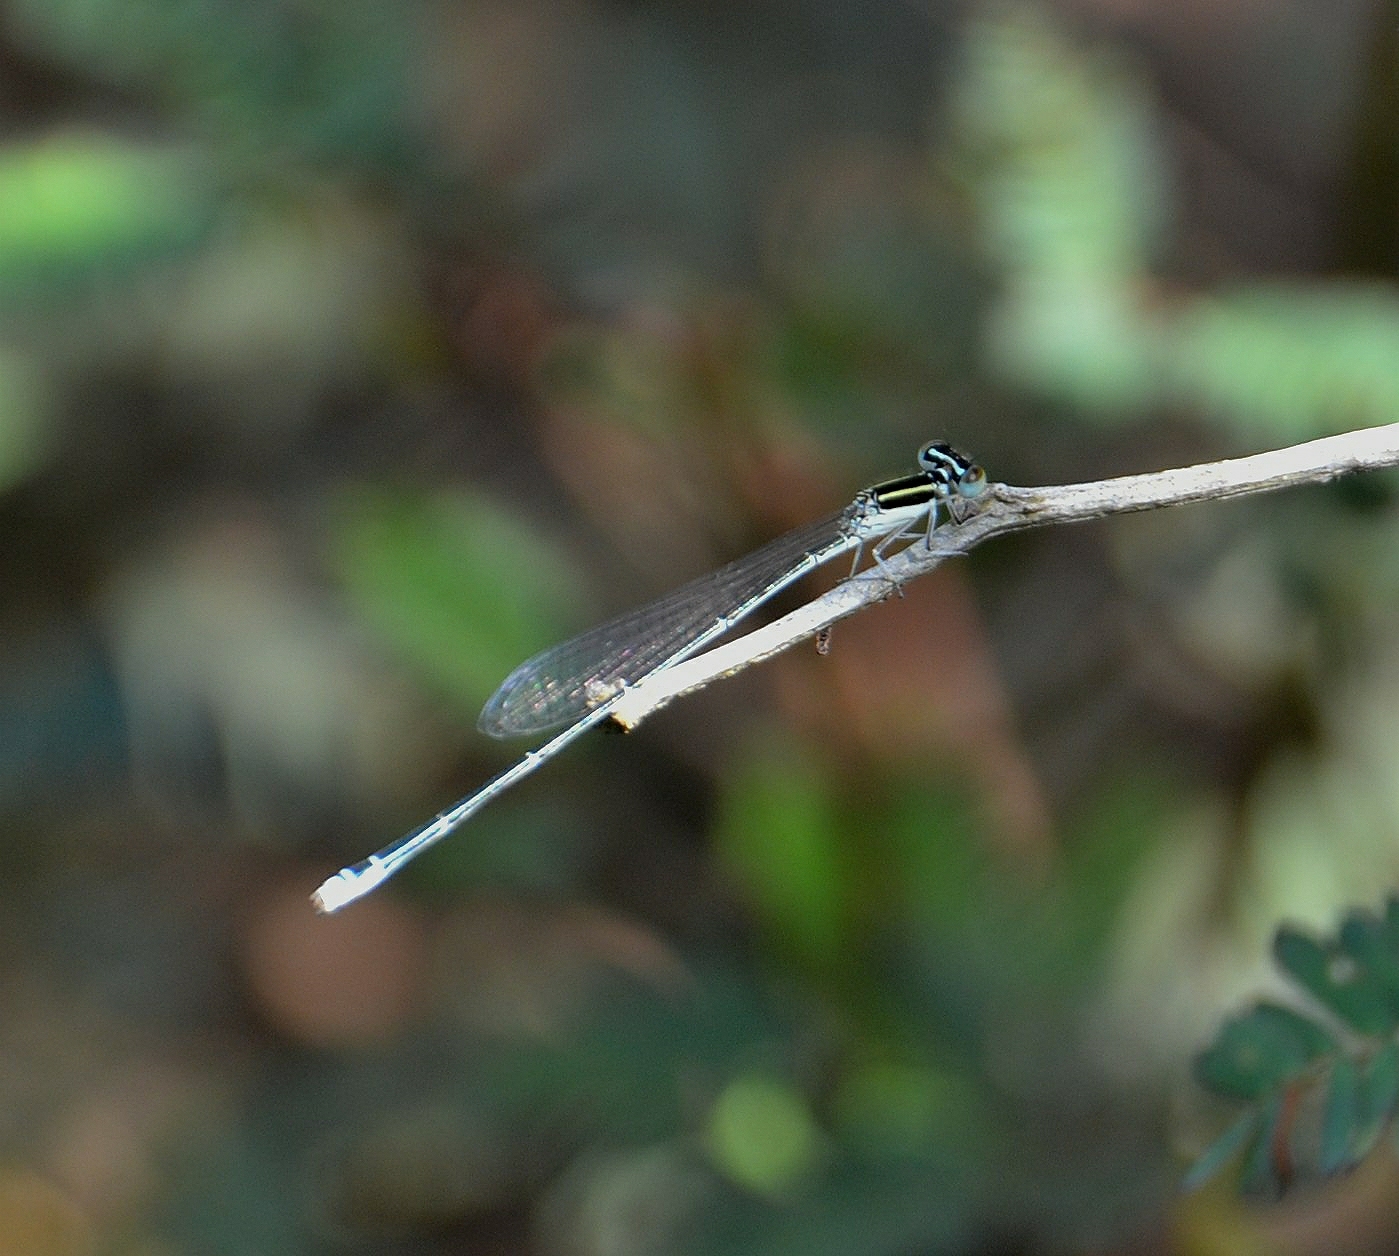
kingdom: Animalia
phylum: Arthropoda
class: Insecta
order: Odonata
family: Coenagrionidae
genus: Aciagrion
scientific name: Aciagrion occidentale
